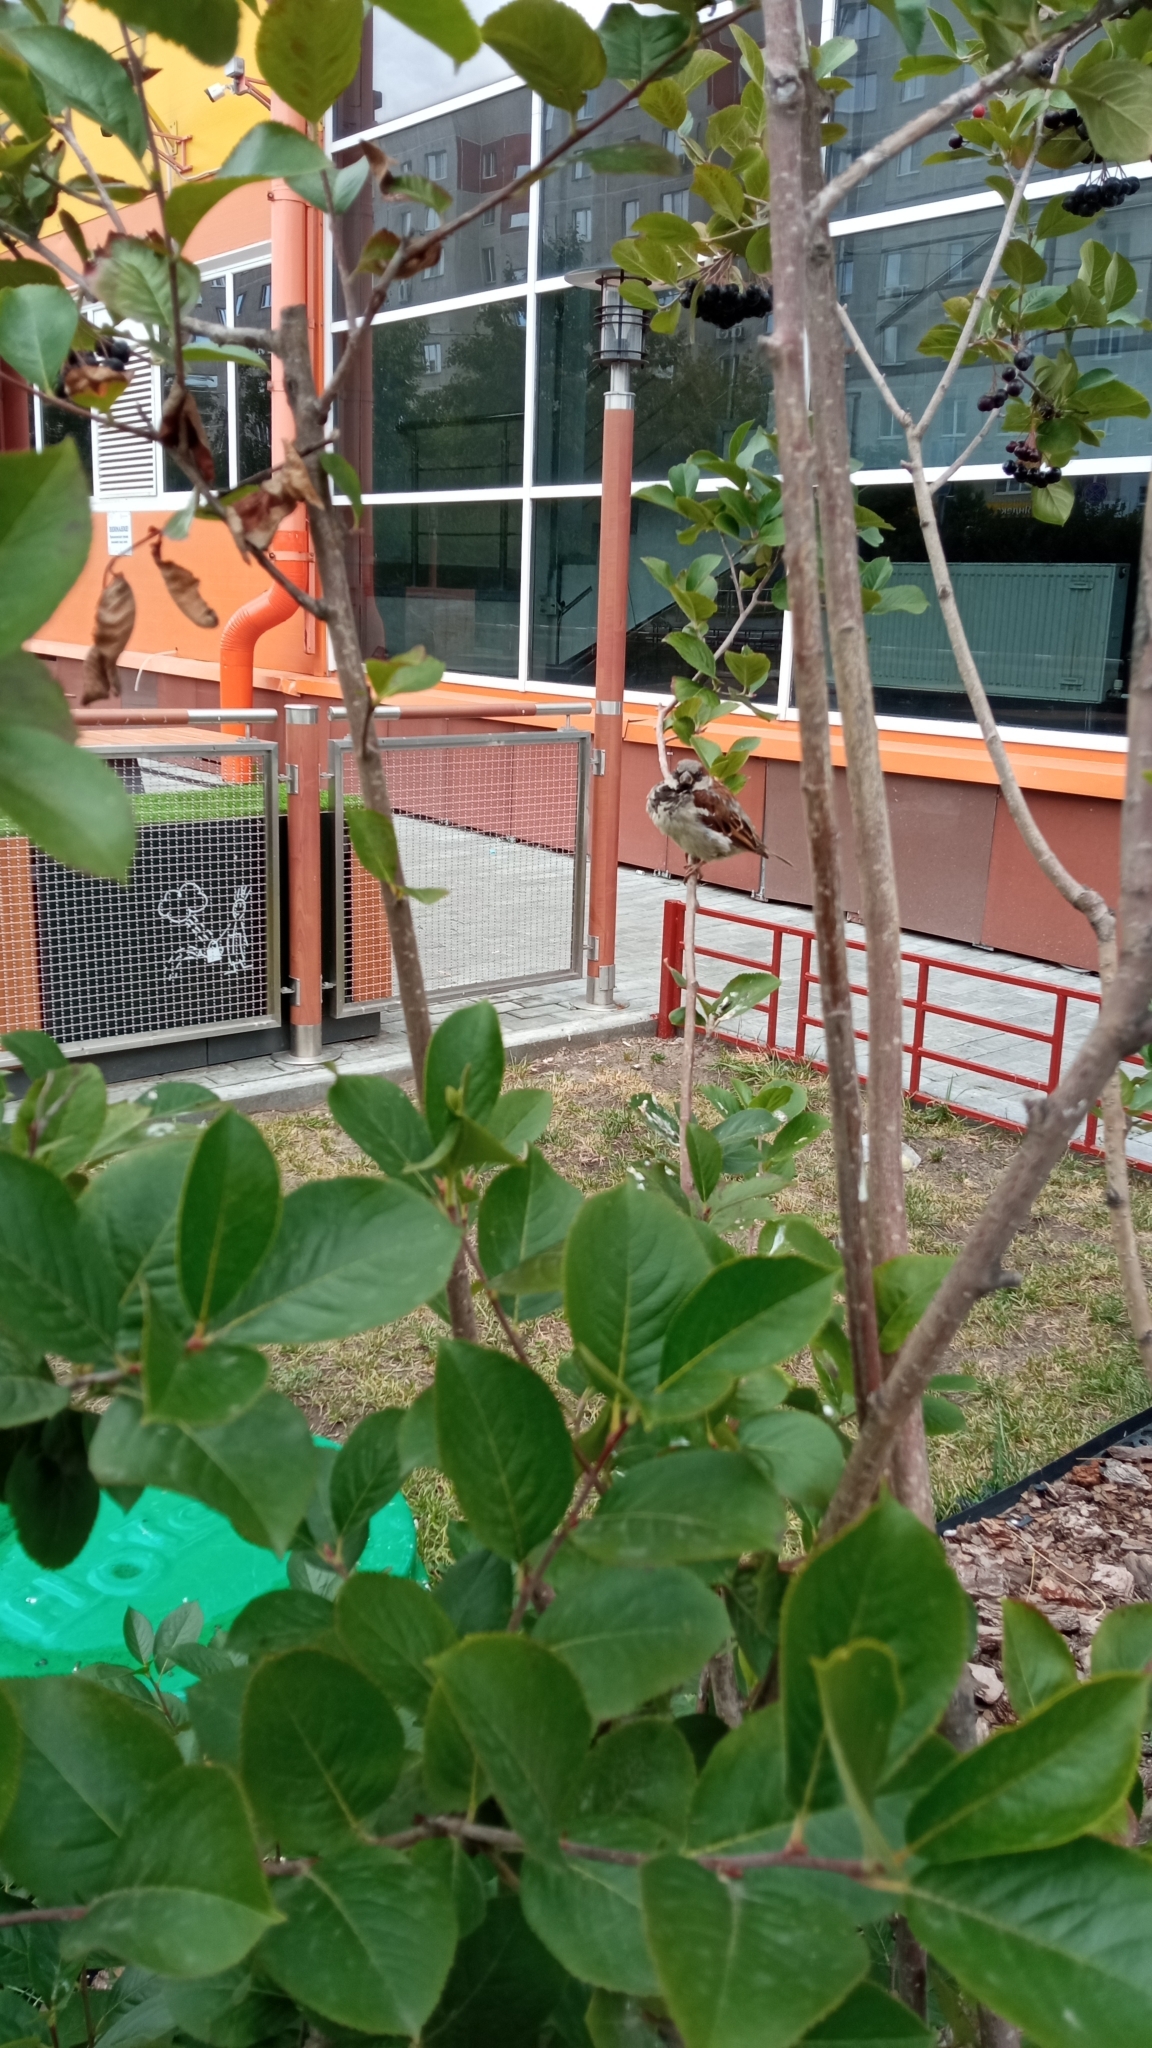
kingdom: Animalia
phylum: Chordata
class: Aves
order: Passeriformes
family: Passeridae
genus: Passer
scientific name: Passer domesticus
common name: House sparrow
